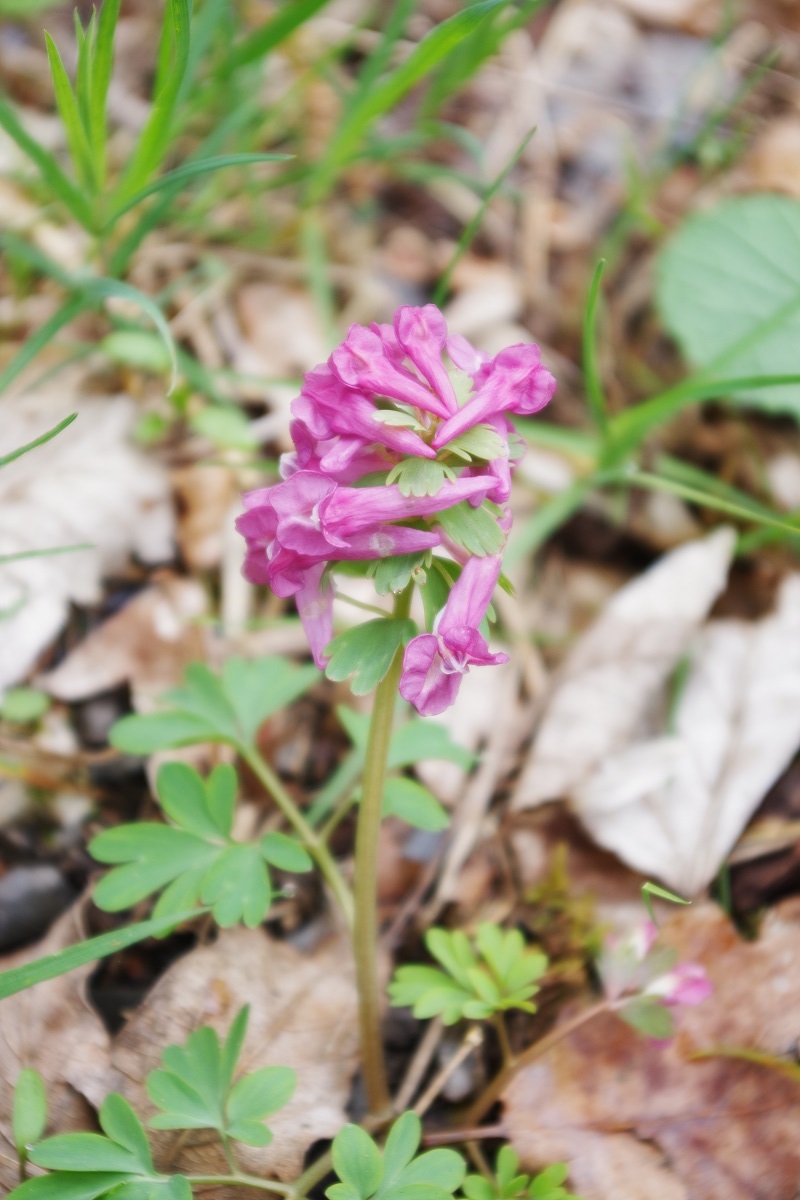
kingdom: Plantae
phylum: Tracheophyta
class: Magnoliopsida
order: Ranunculales
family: Papaveraceae
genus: Corydalis
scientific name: Corydalis solida
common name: Bird-in-a-bush
